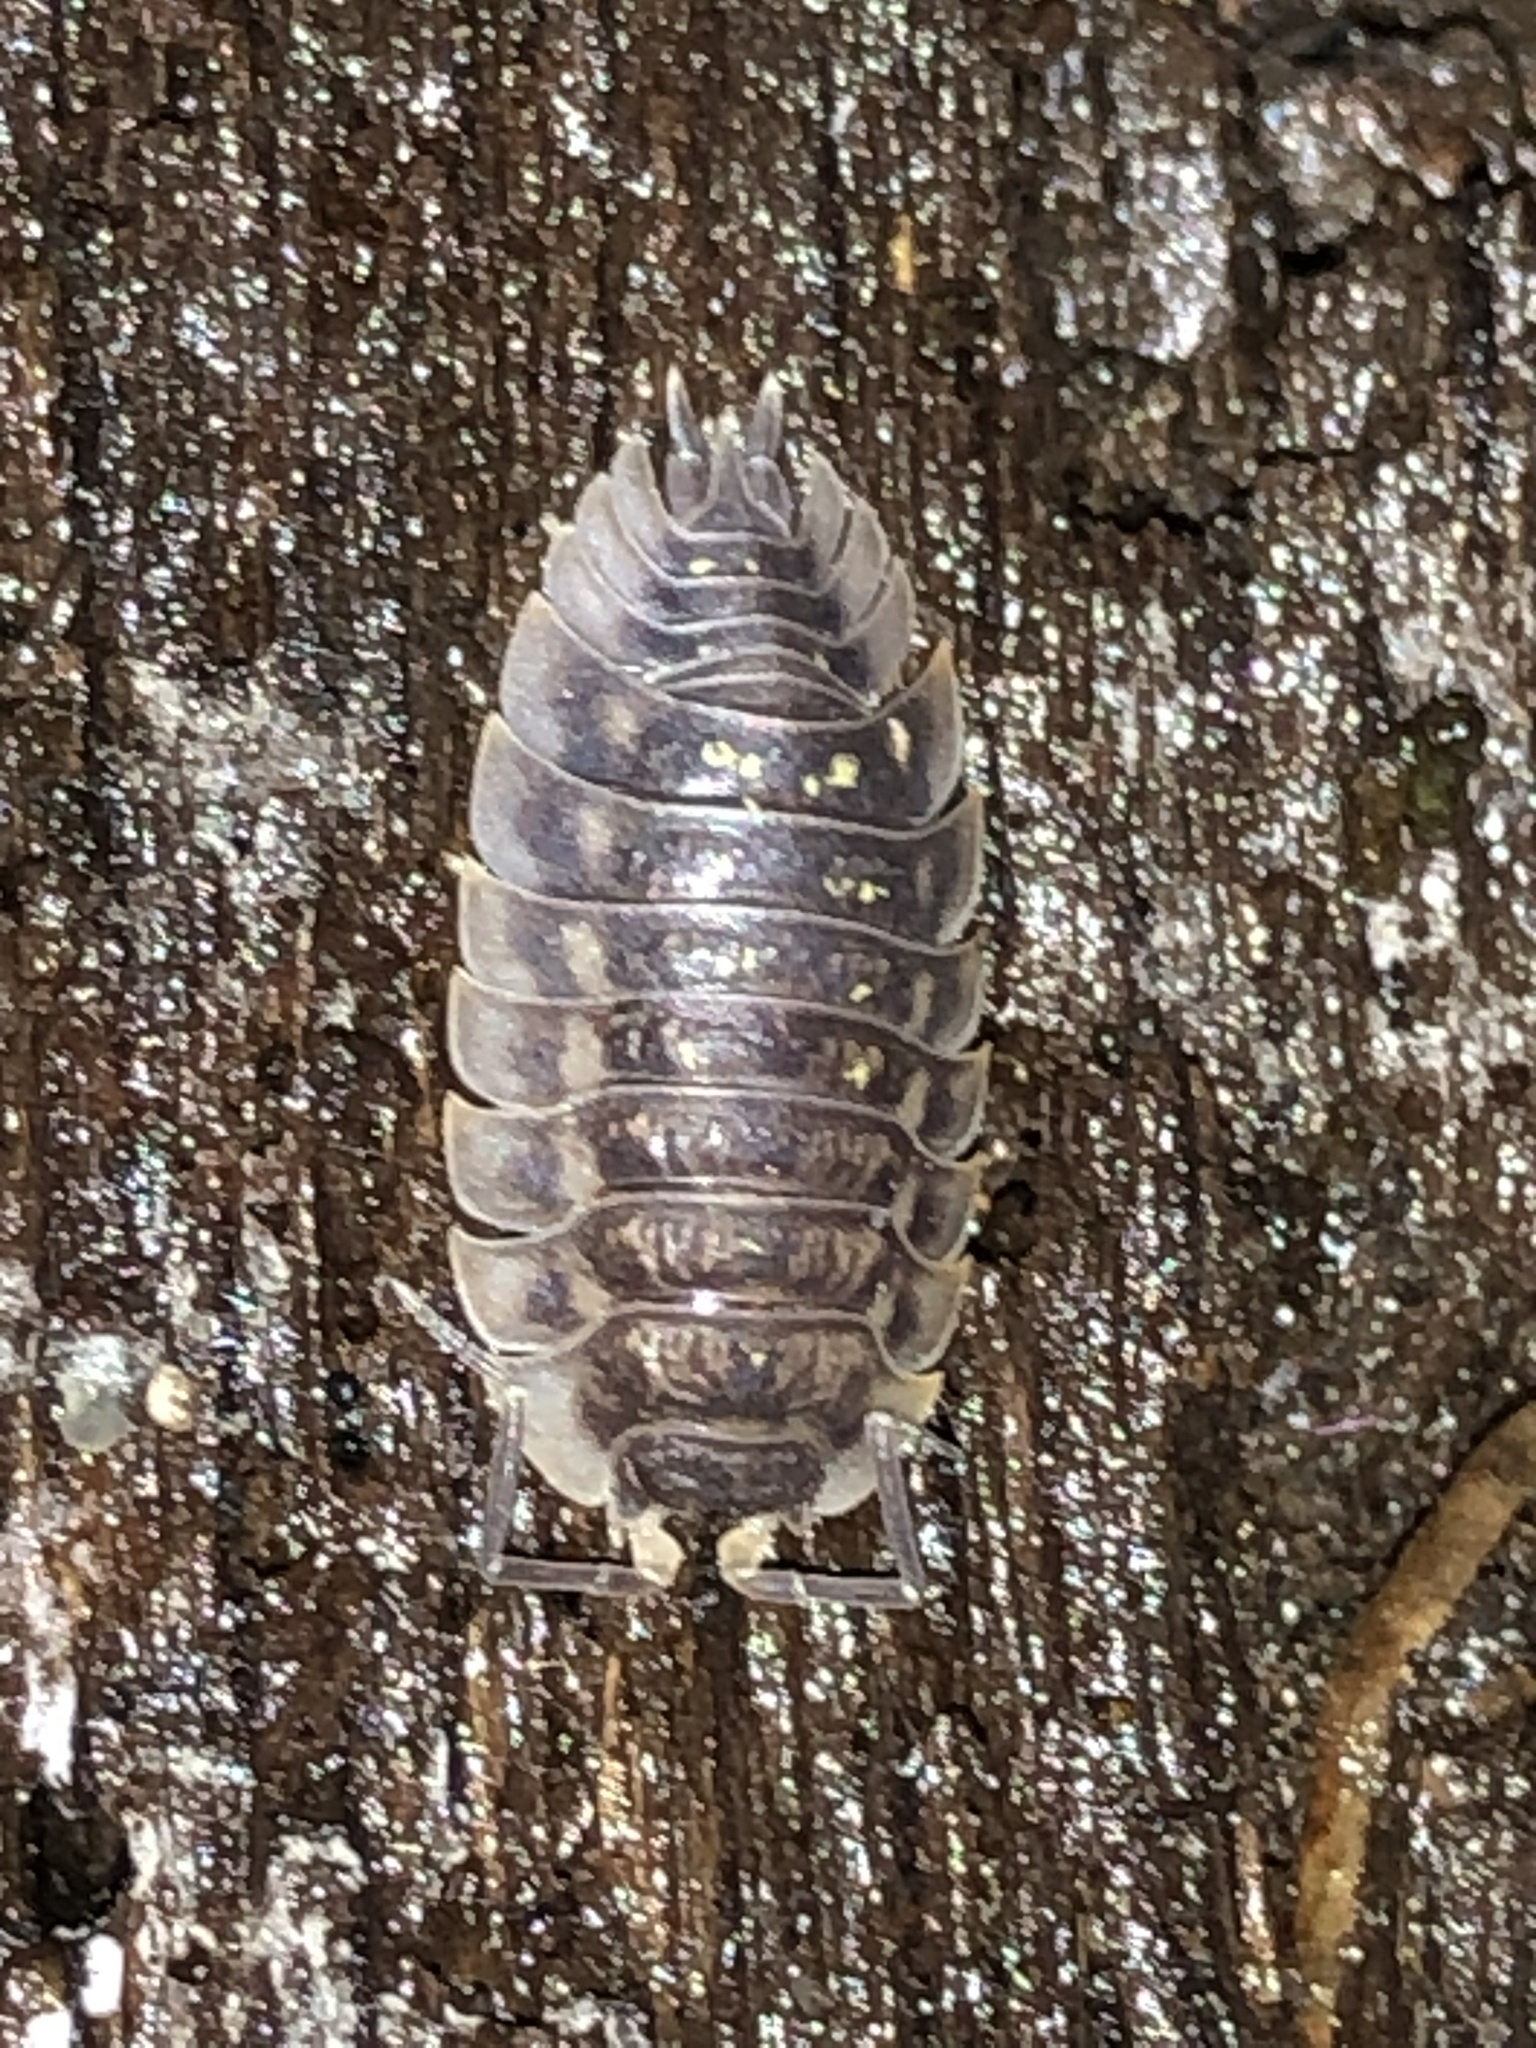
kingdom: Animalia
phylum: Arthropoda
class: Malacostraca
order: Isopoda
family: Oniscidae
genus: Oniscus
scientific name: Oniscus asellus
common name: Common shiny woodlouse
